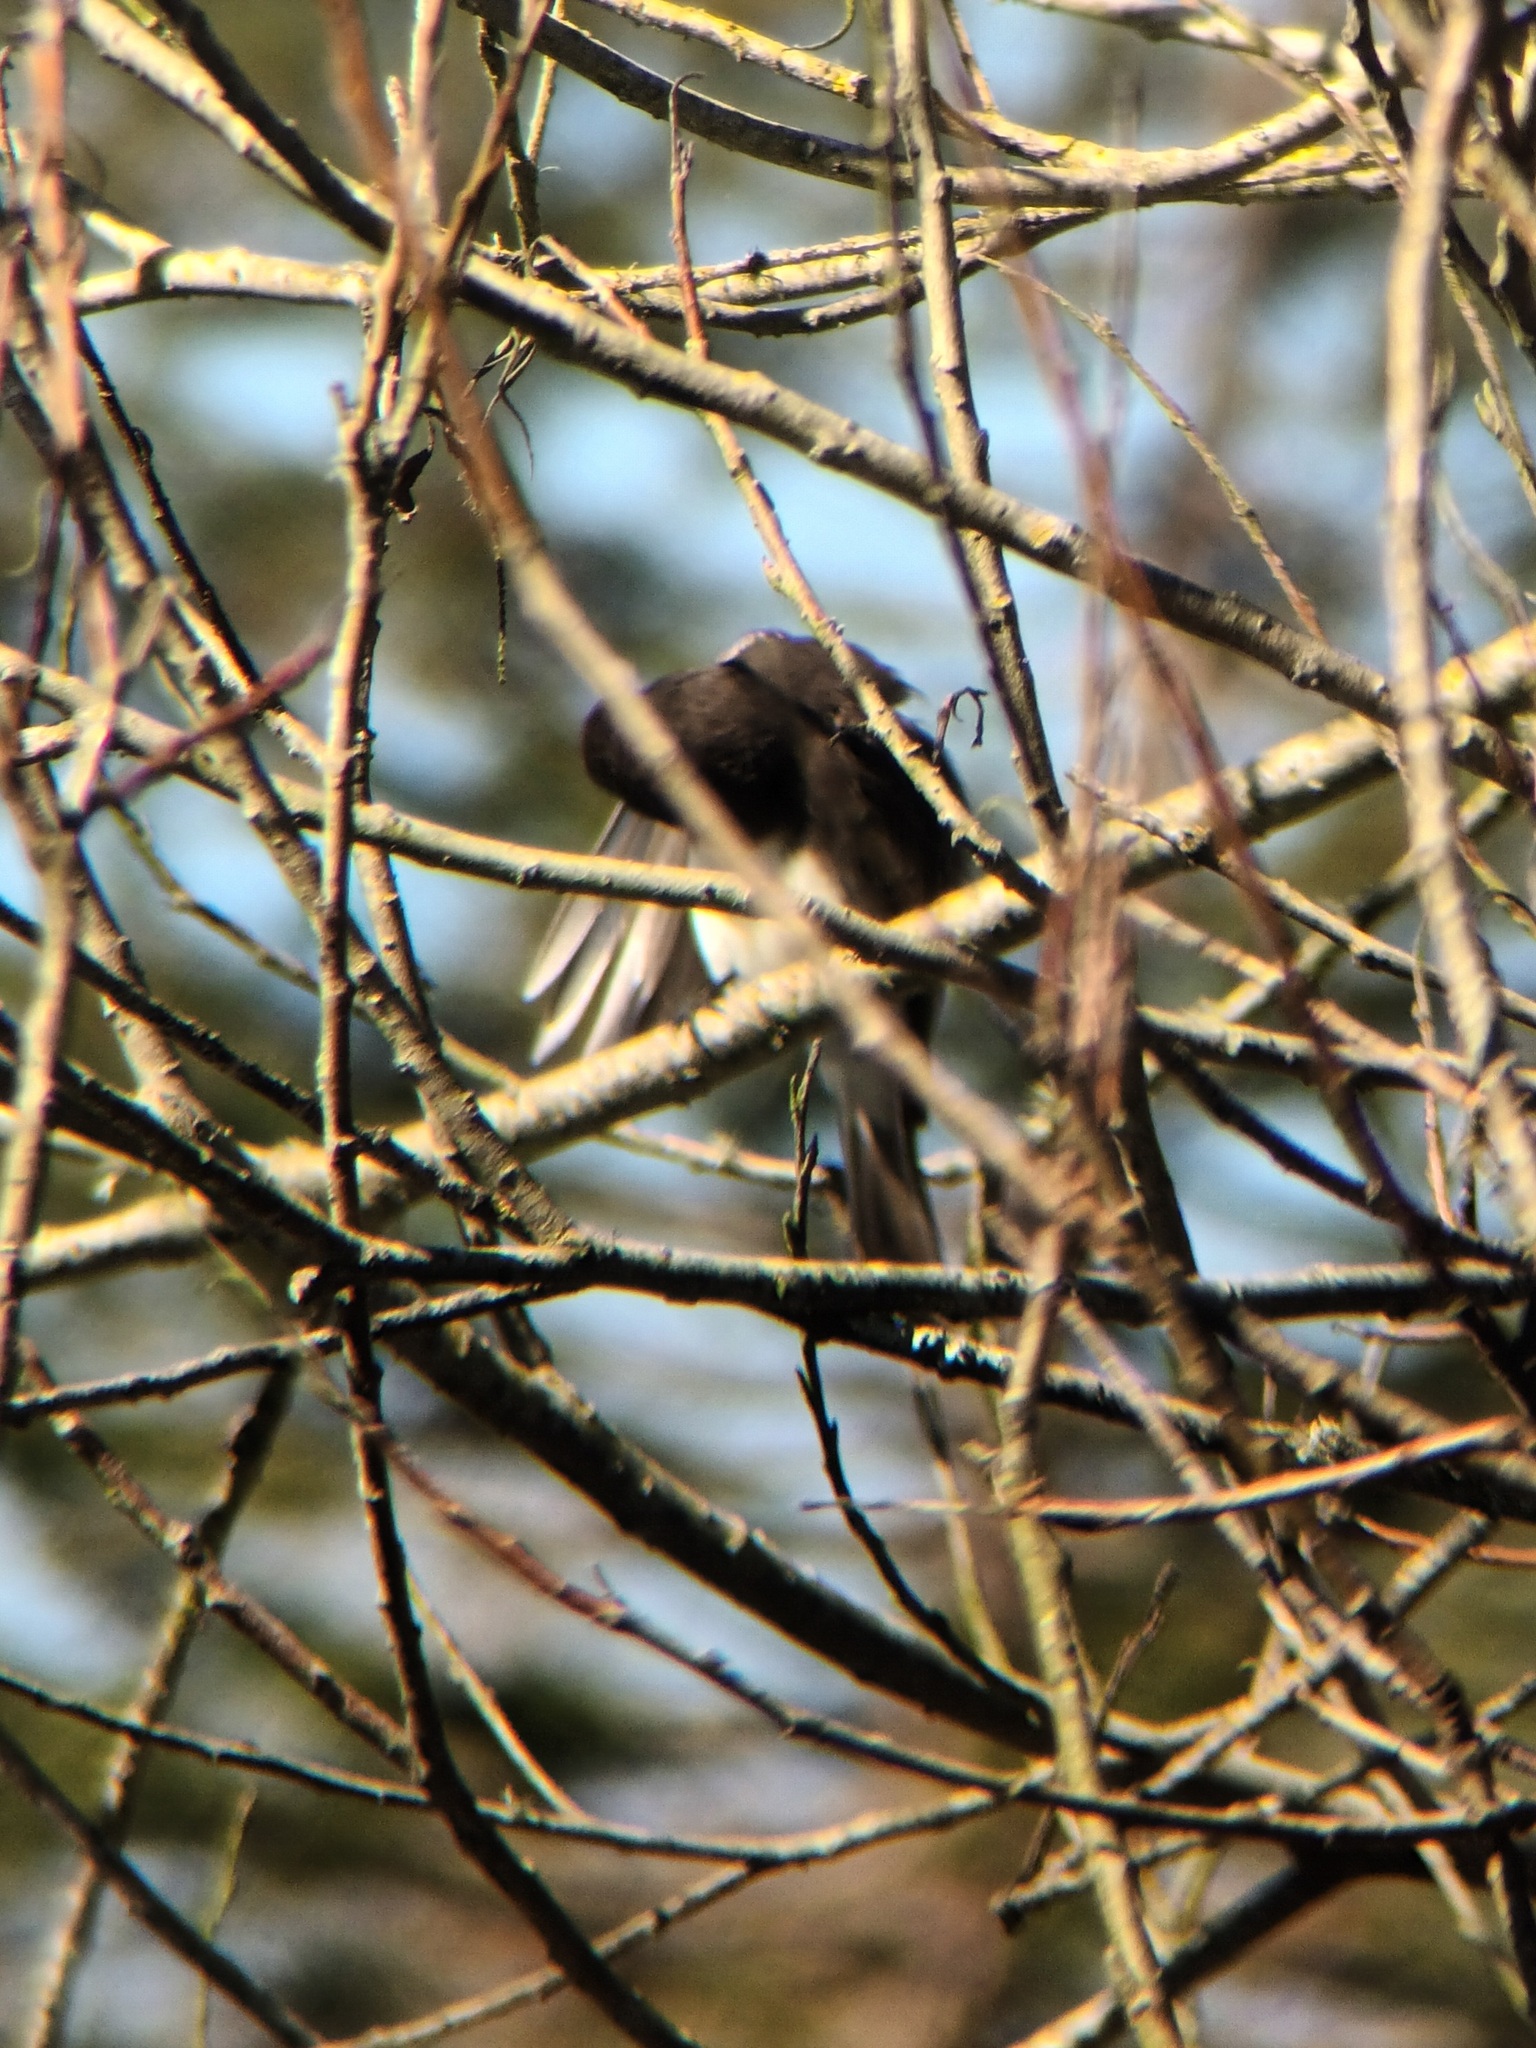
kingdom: Animalia
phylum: Chordata
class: Aves
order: Passeriformes
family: Tyrannidae
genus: Sayornis
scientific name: Sayornis nigricans
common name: Black phoebe
